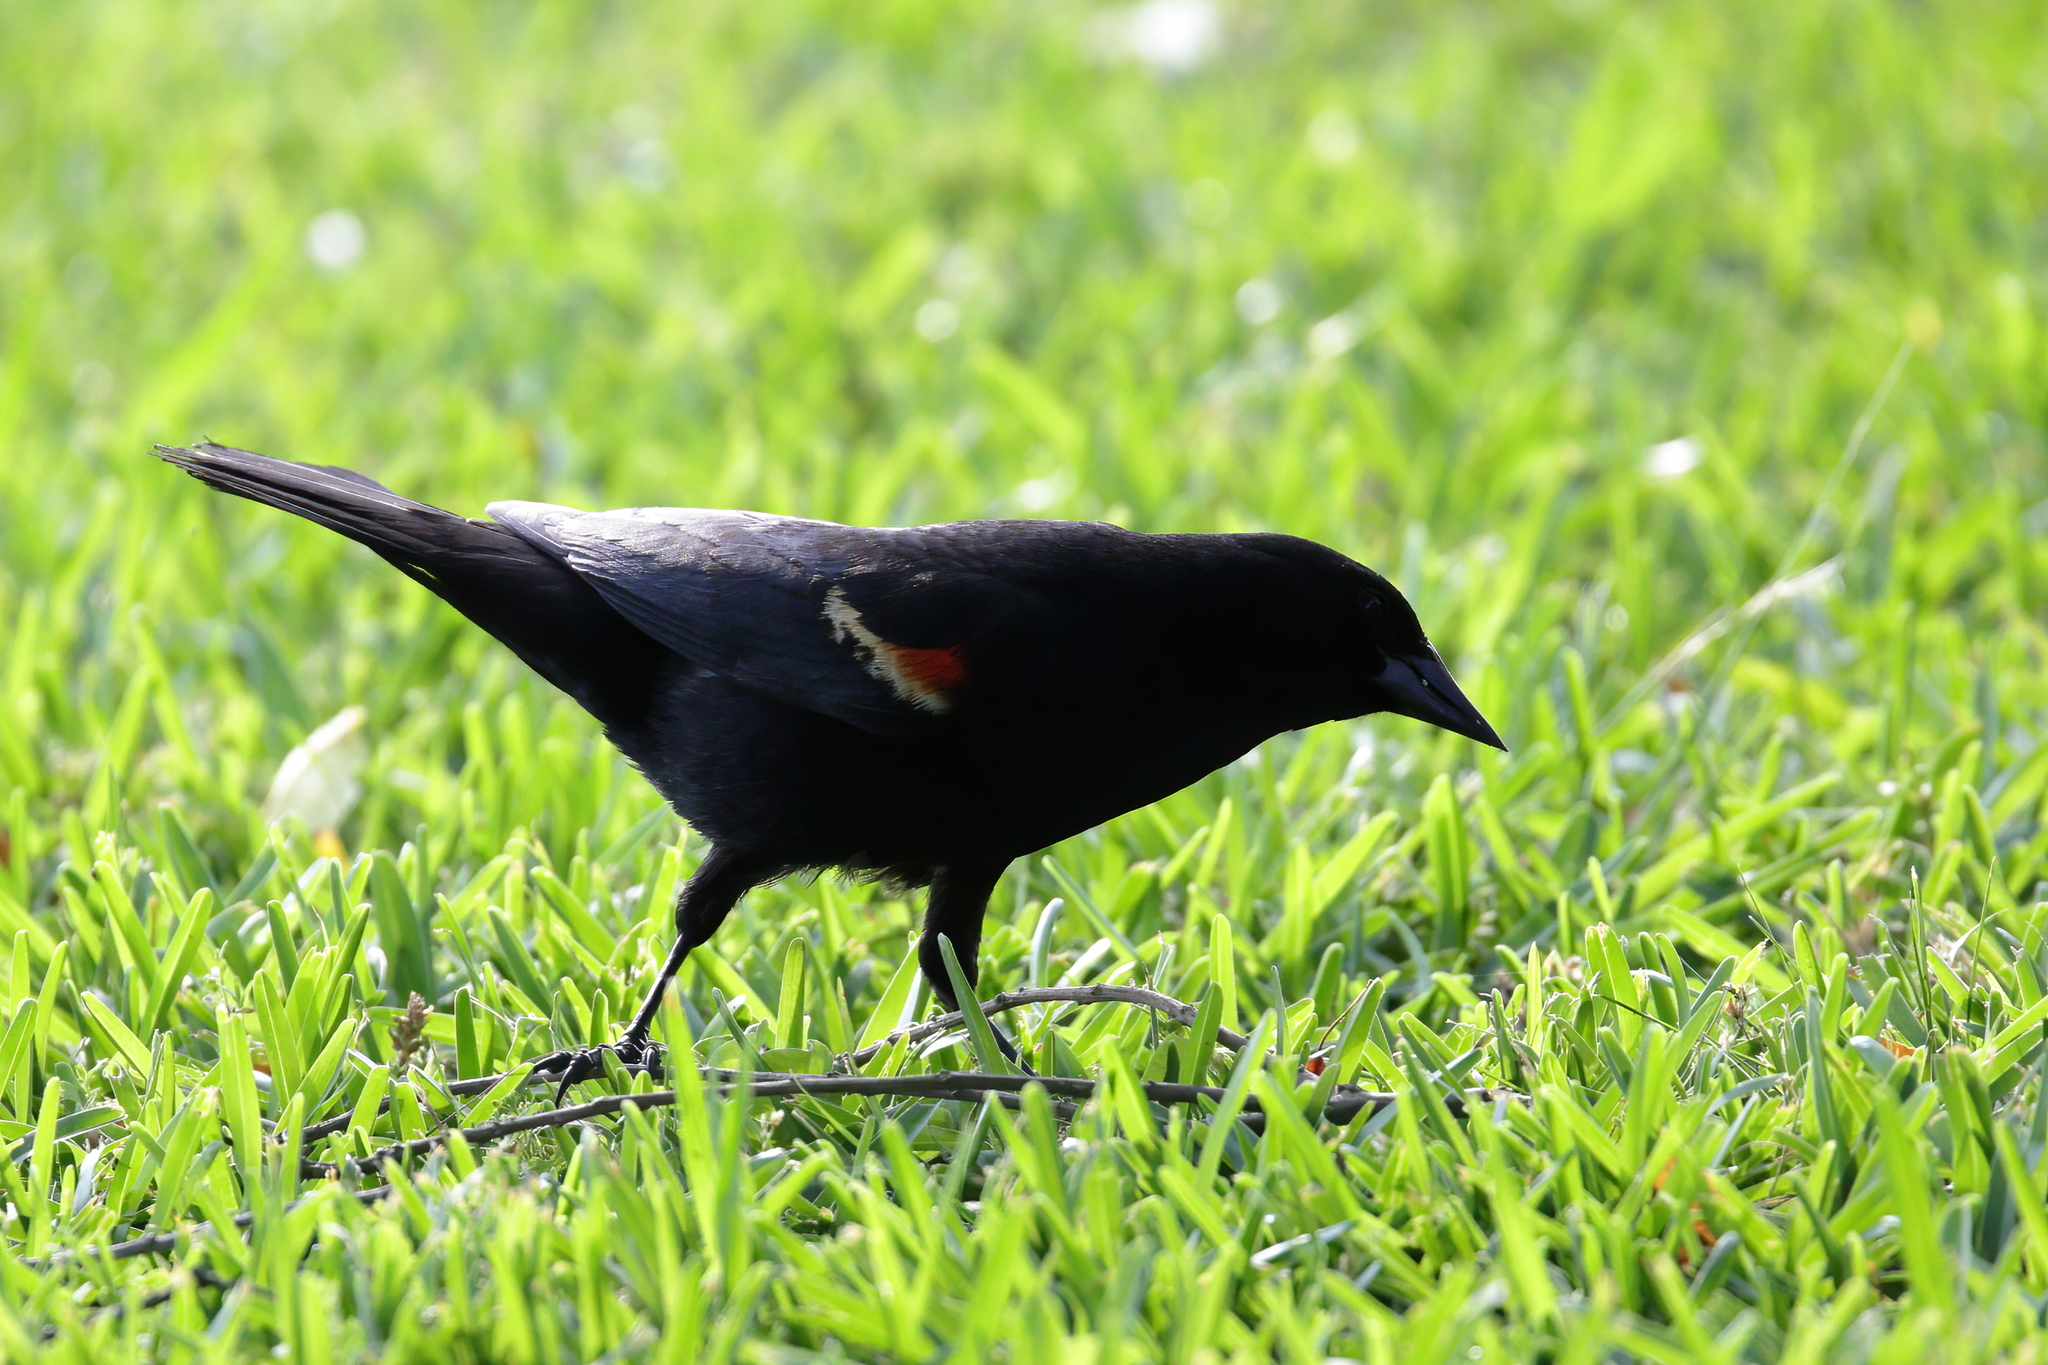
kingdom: Animalia
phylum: Chordata
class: Aves
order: Passeriformes
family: Icteridae
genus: Agelaius
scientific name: Agelaius phoeniceus
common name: Red-winged blackbird
